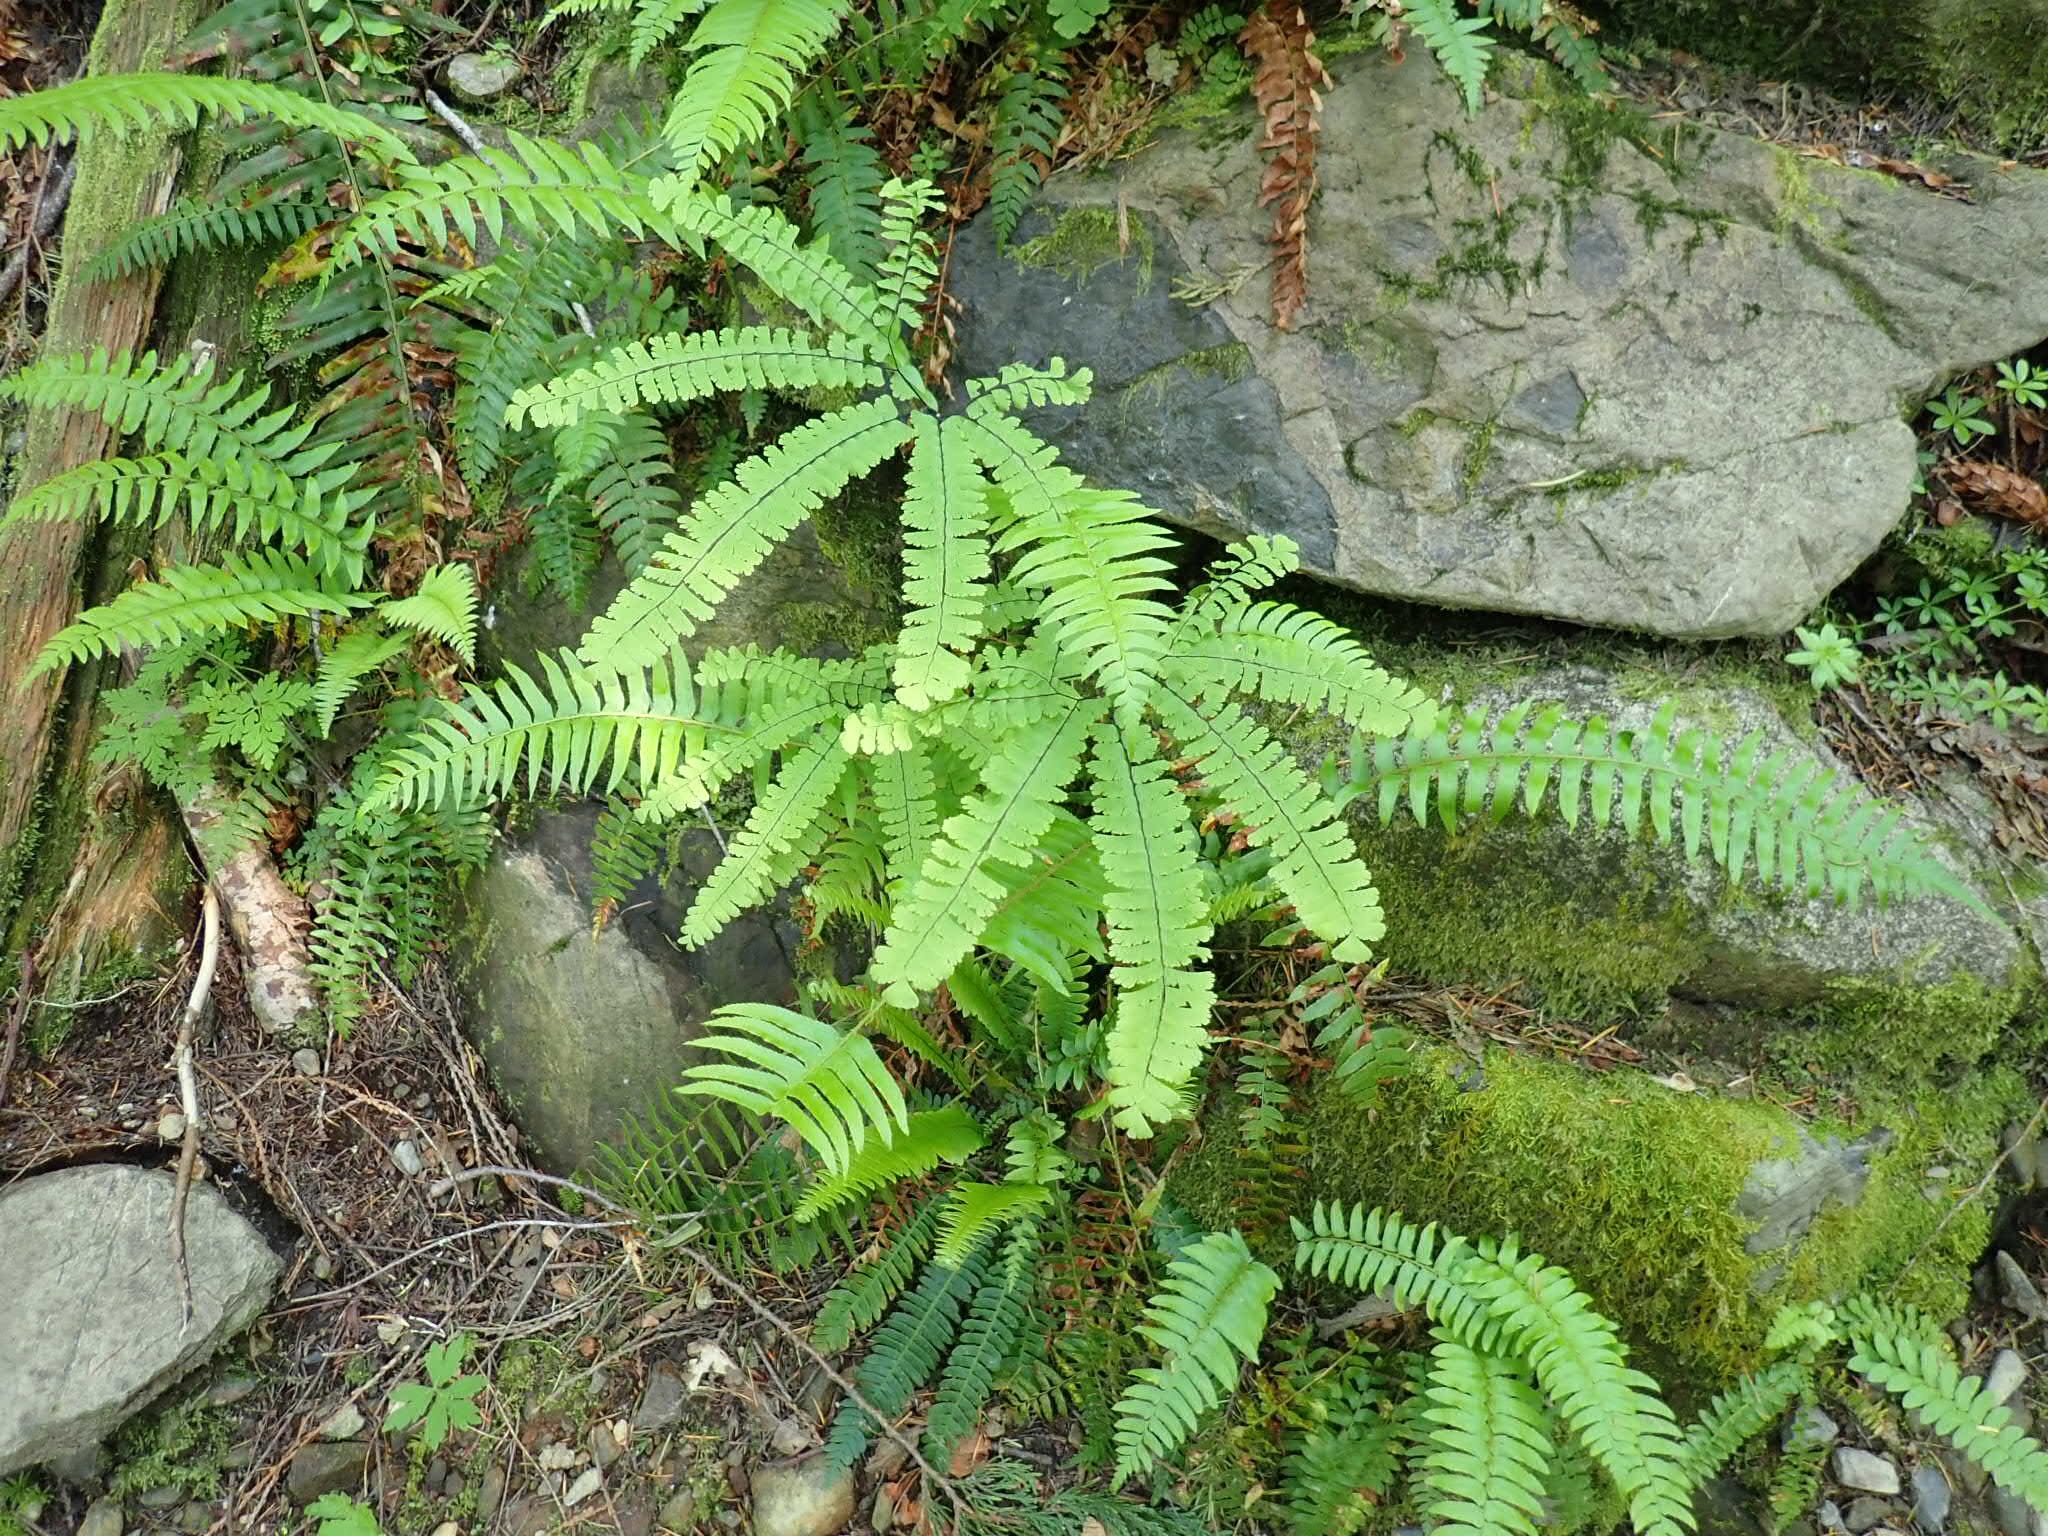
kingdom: Plantae
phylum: Tracheophyta
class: Polypodiopsida
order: Polypodiales
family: Pteridaceae
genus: Adiantum
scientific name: Adiantum aleuticum
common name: Aleutian maidenhair fern
